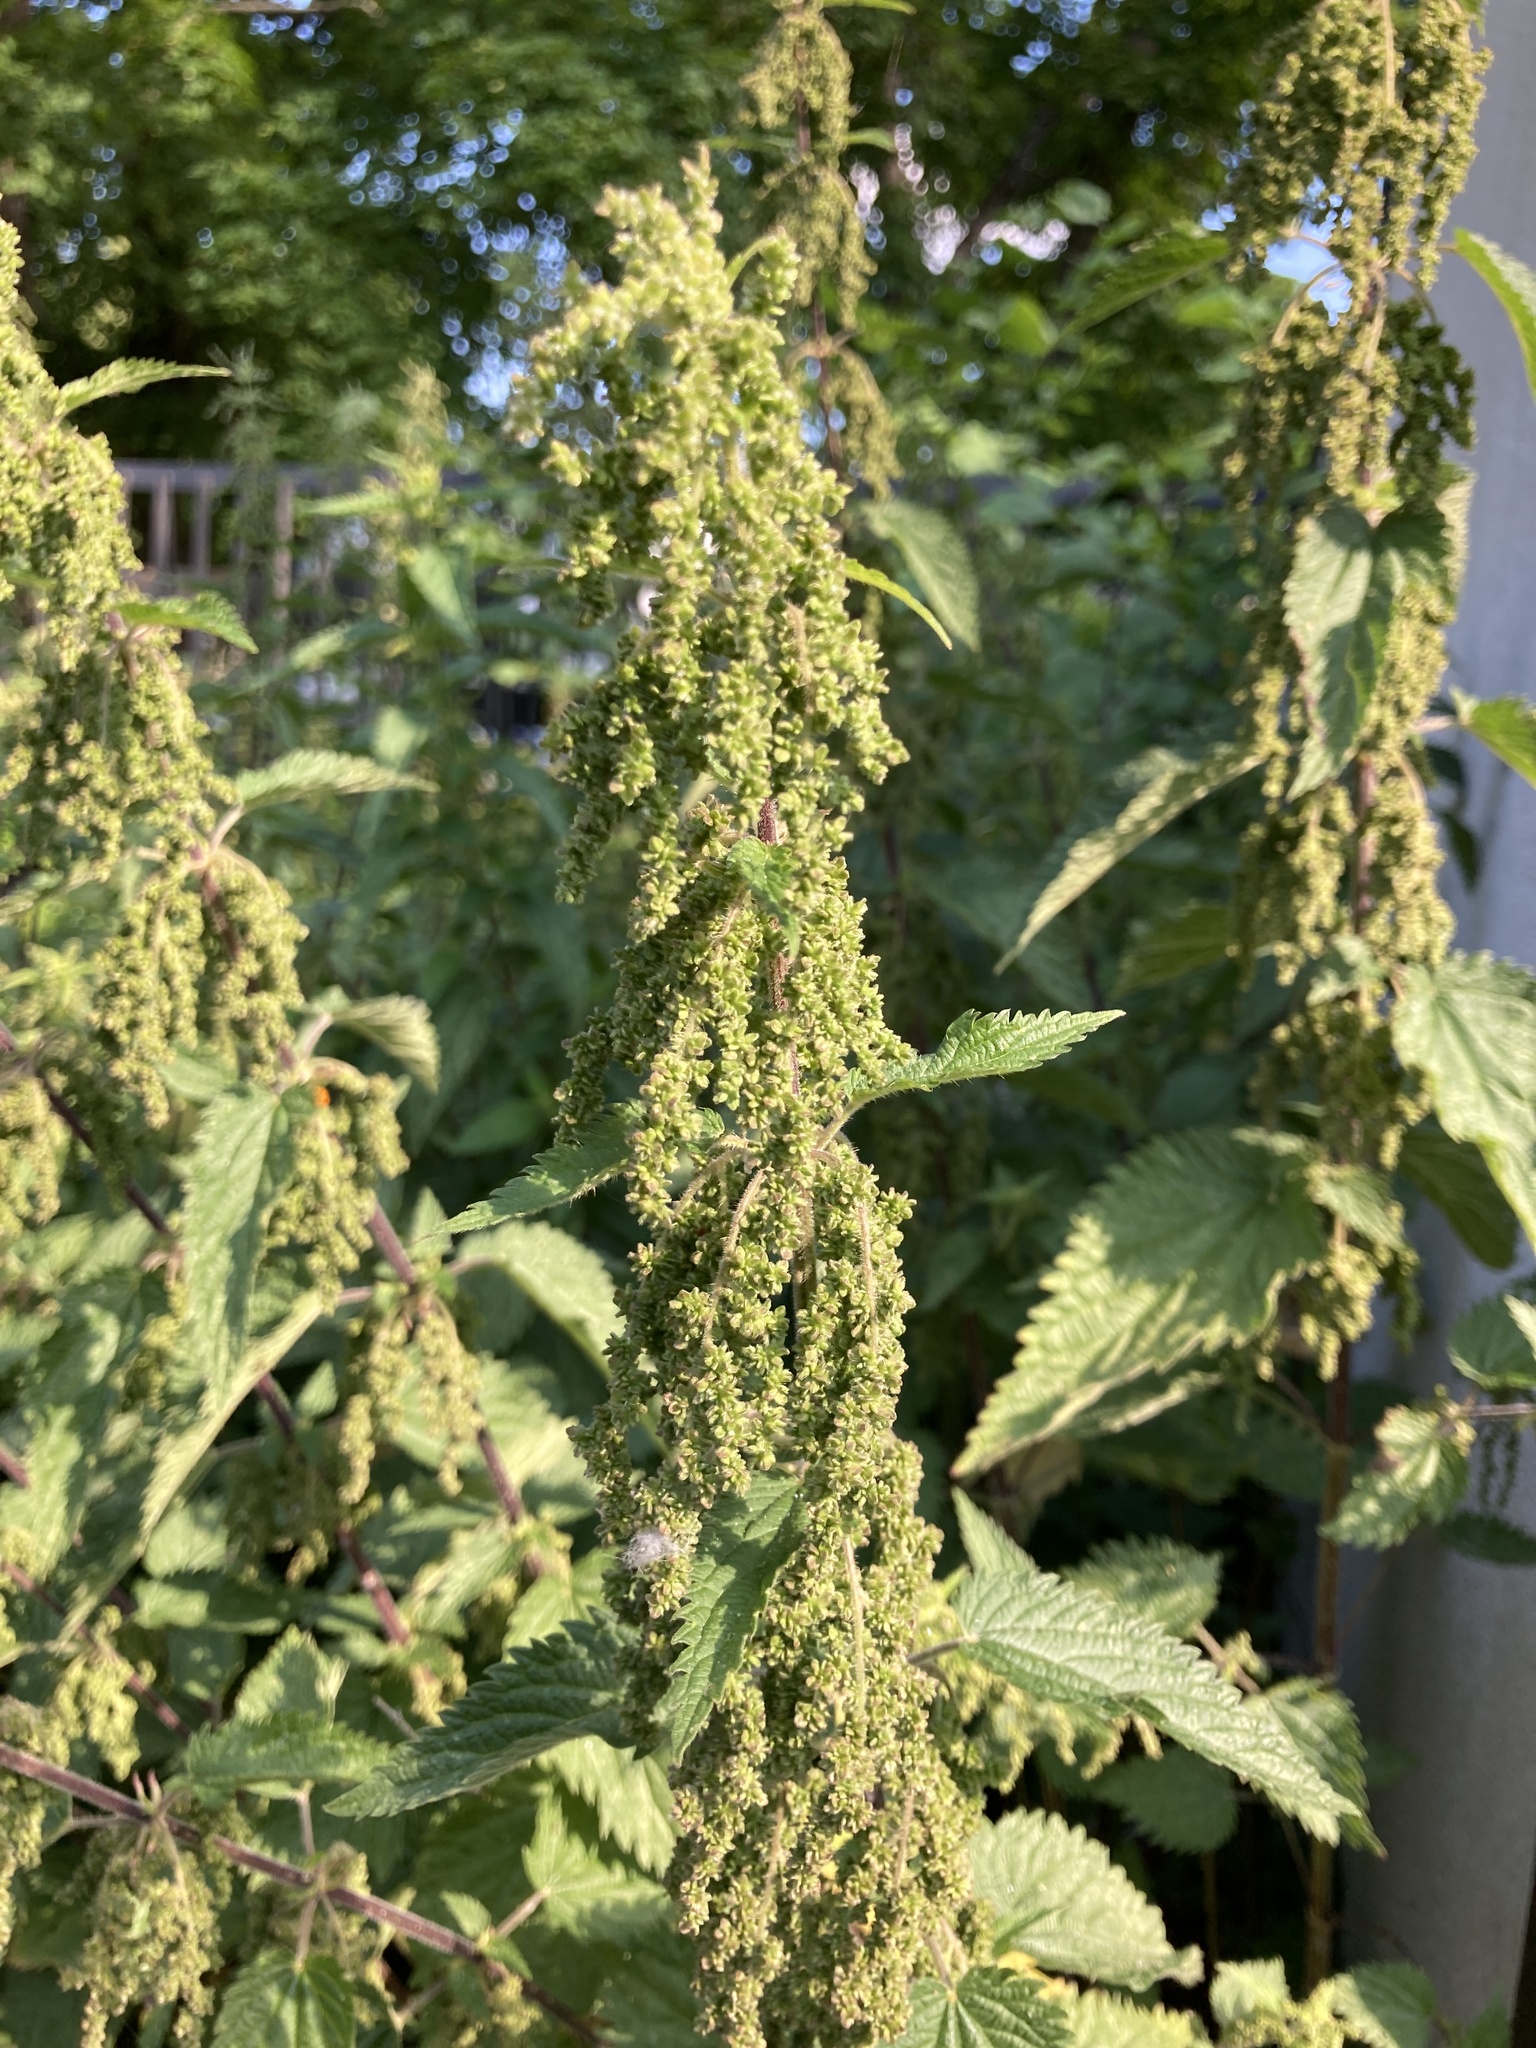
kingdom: Plantae
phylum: Tracheophyta
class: Magnoliopsida
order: Rosales
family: Urticaceae
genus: Urtica
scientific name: Urtica dioica
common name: Common nettle
